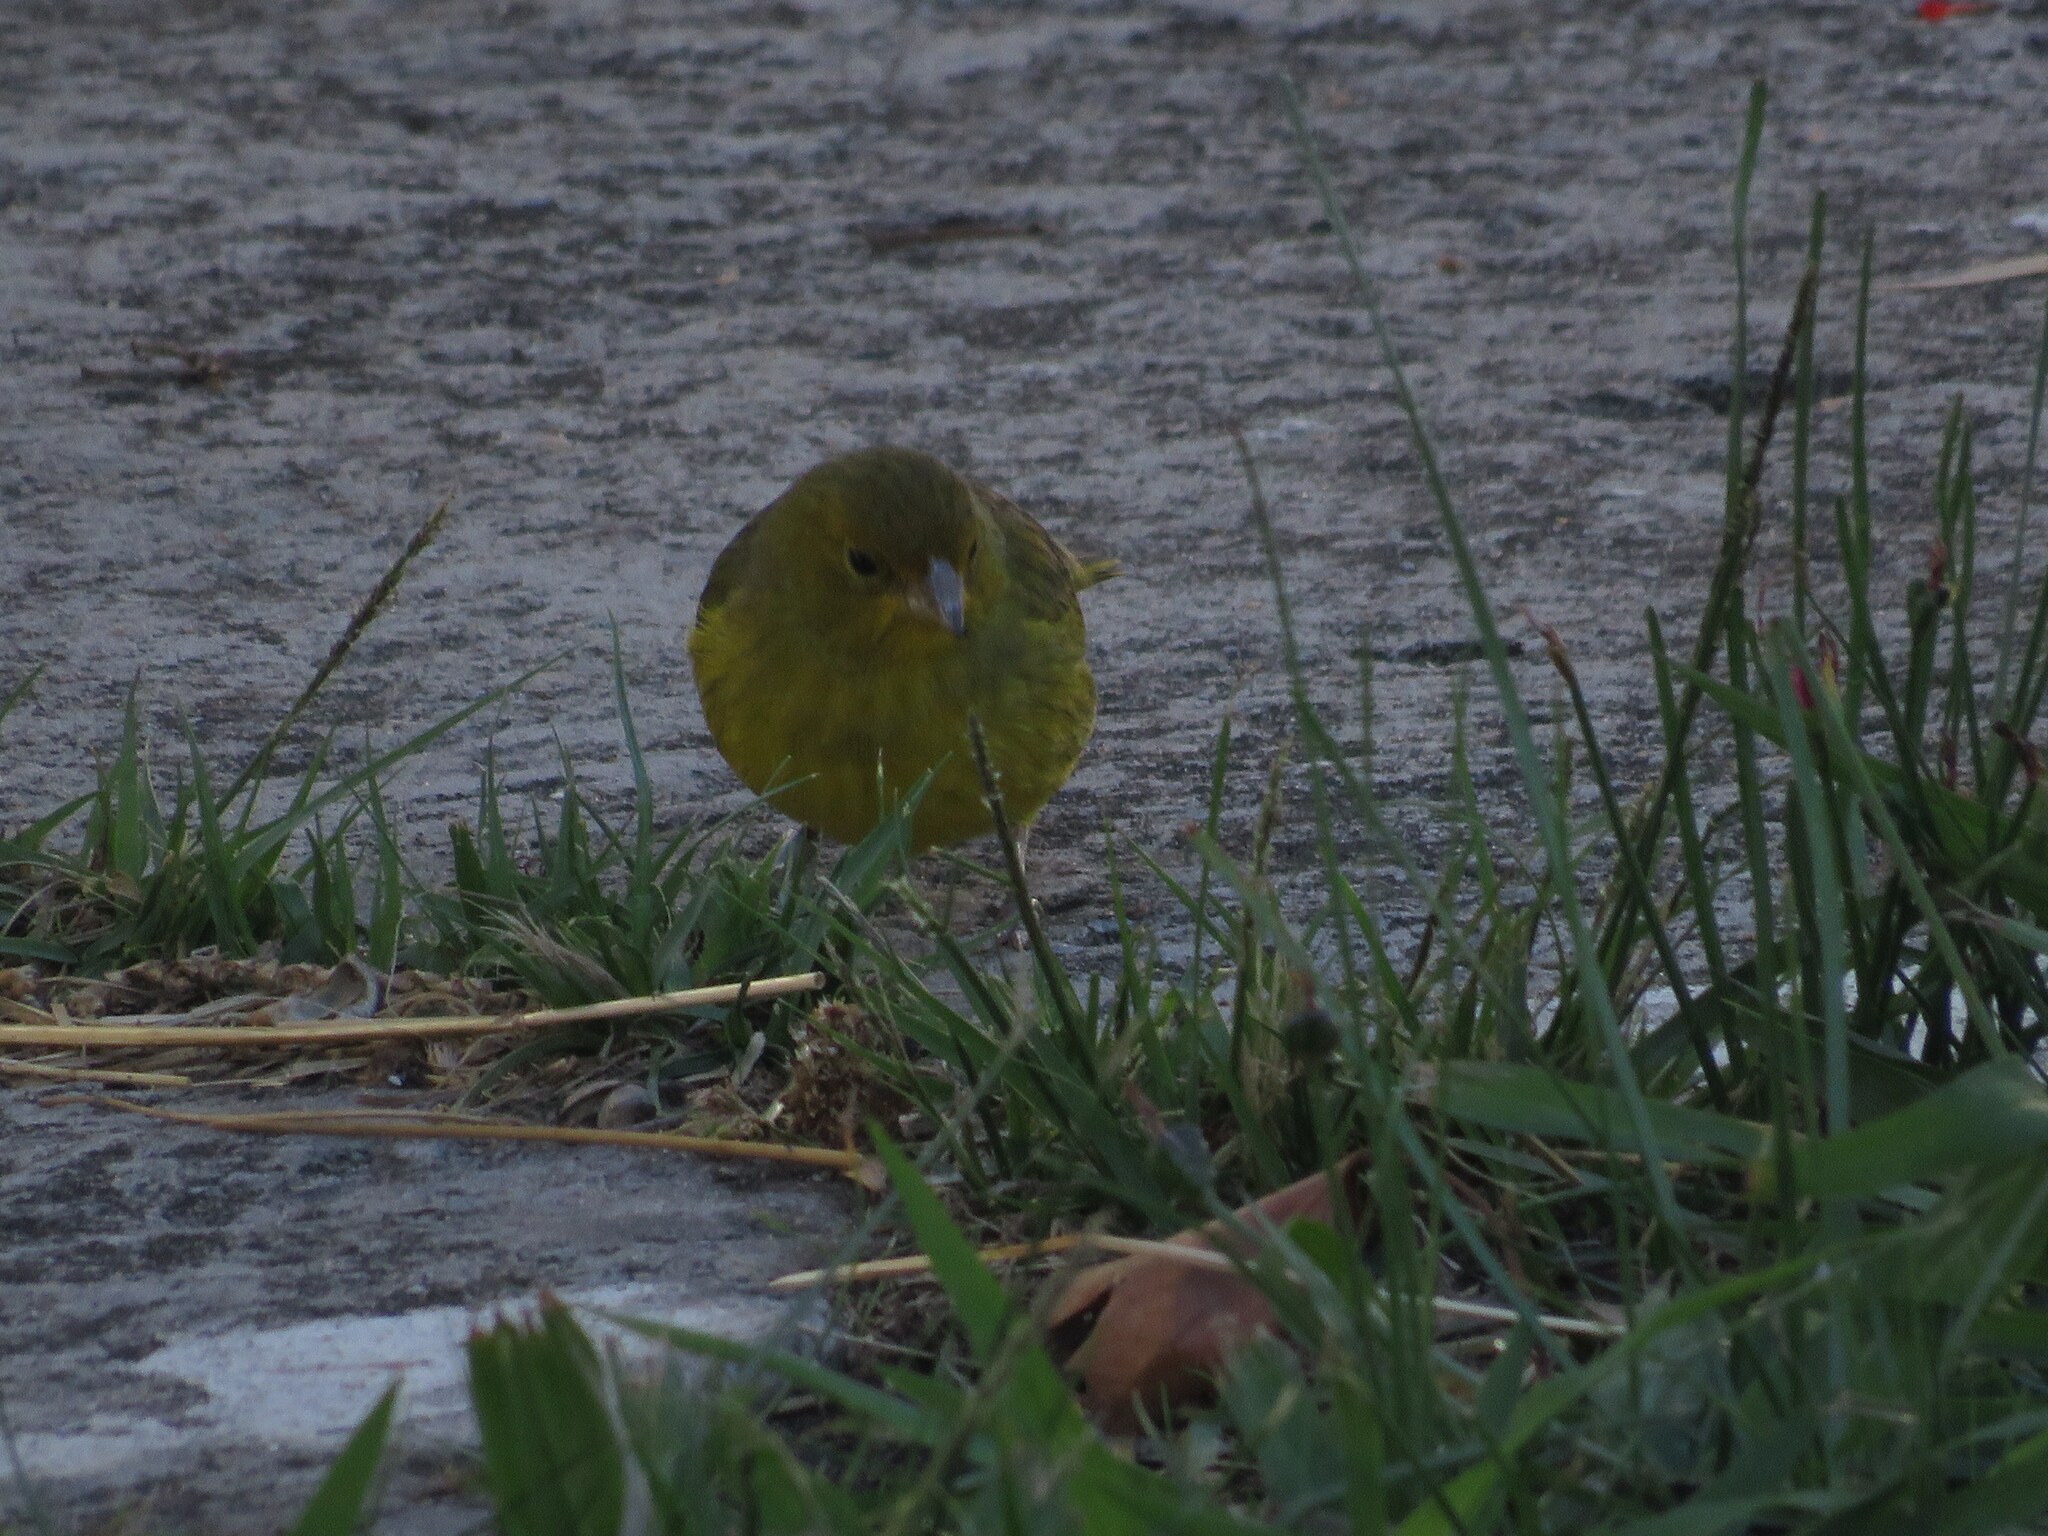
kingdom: Animalia
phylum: Chordata
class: Aves
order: Passeriformes
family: Thraupidae
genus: Sicalis
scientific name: Sicalis flaveola
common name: Saffron finch
